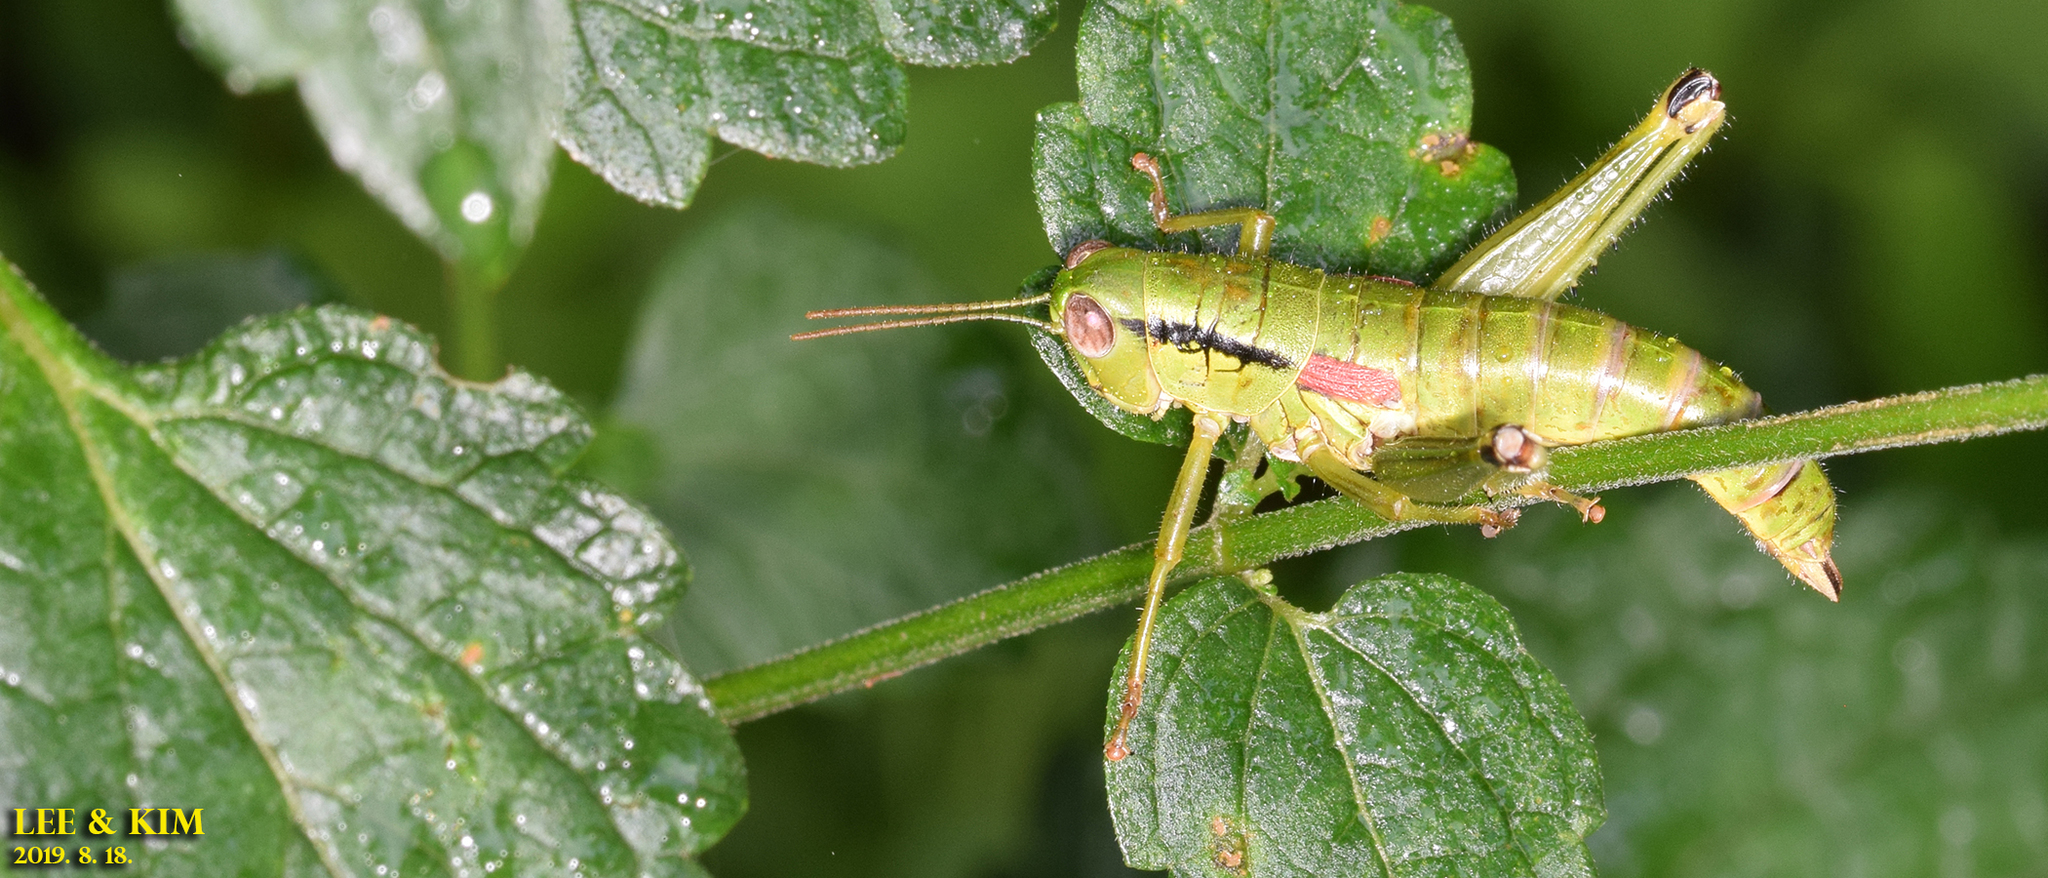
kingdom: Animalia
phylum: Arthropoda
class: Insecta
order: Orthoptera
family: Acrididae
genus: Anapodisma
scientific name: Anapodisma miramae
